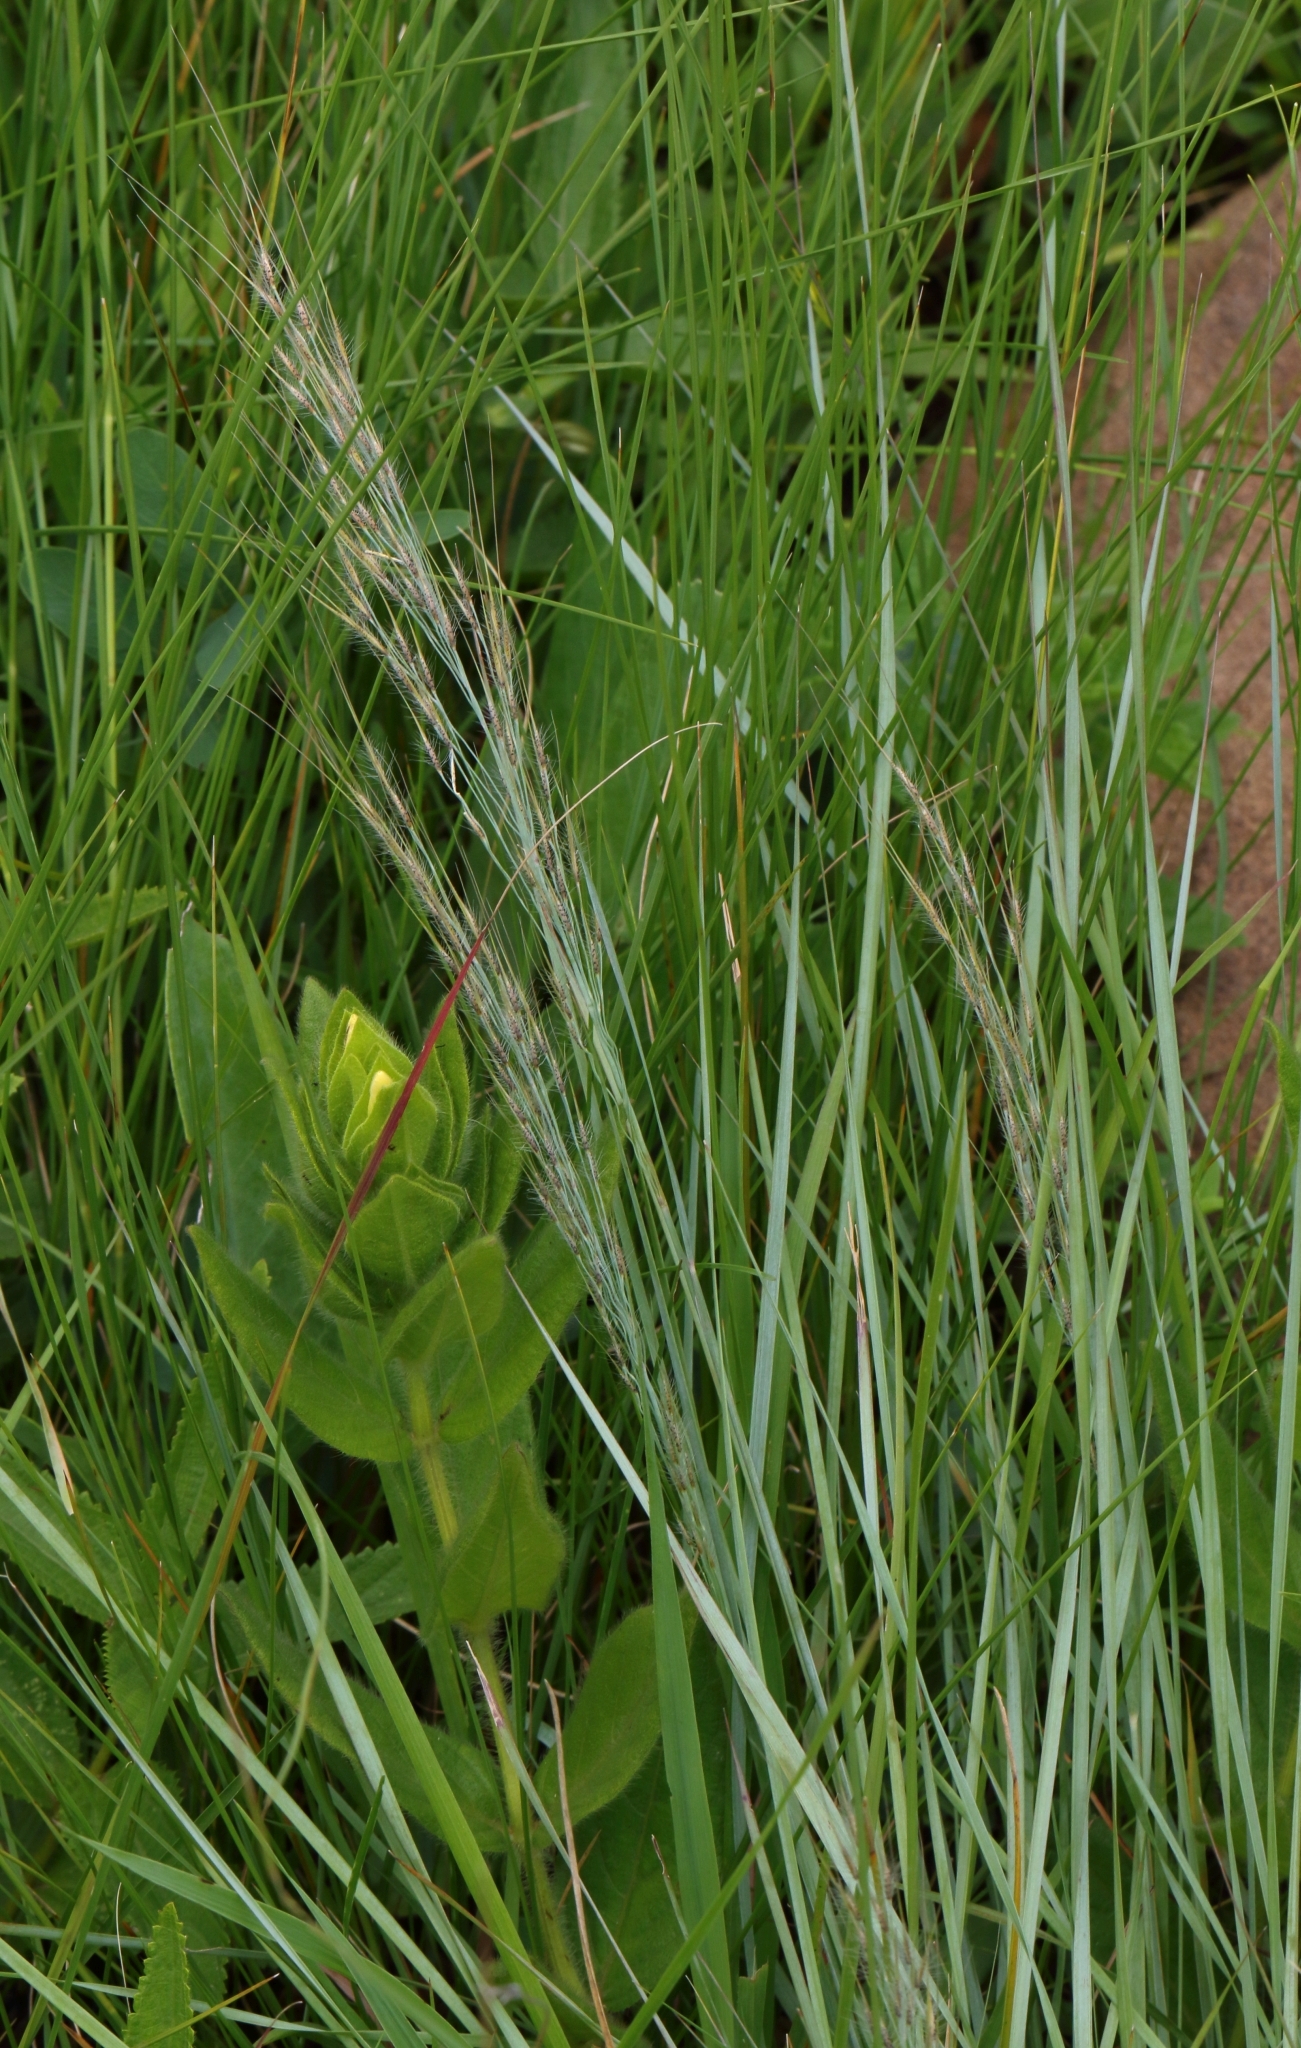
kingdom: Plantae
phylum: Tracheophyta
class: Liliopsida
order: Poales
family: Poaceae
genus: Loudetia
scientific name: Loudetia simplex
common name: Common russet grass
